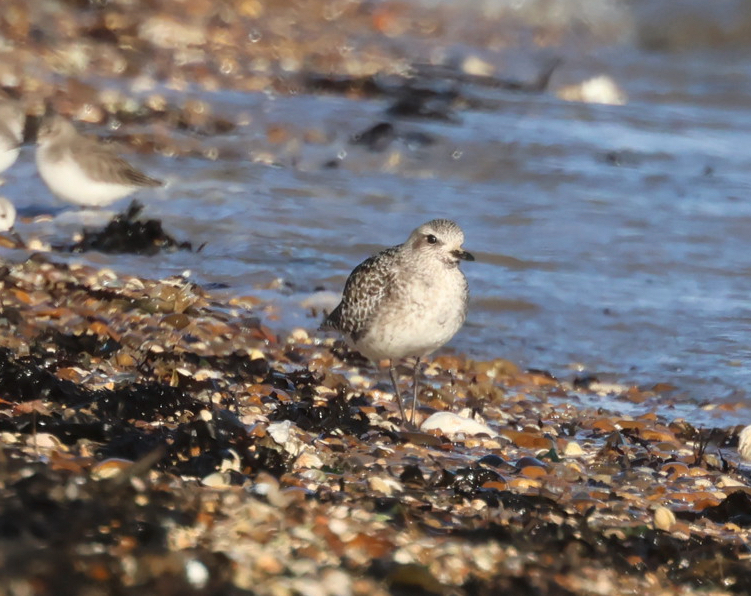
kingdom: Animalia
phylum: Chordata
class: Aves
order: Charadriiformes
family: Charadriidae
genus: Pluvialis
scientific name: Pluvialis squatarola
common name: Grey plover
